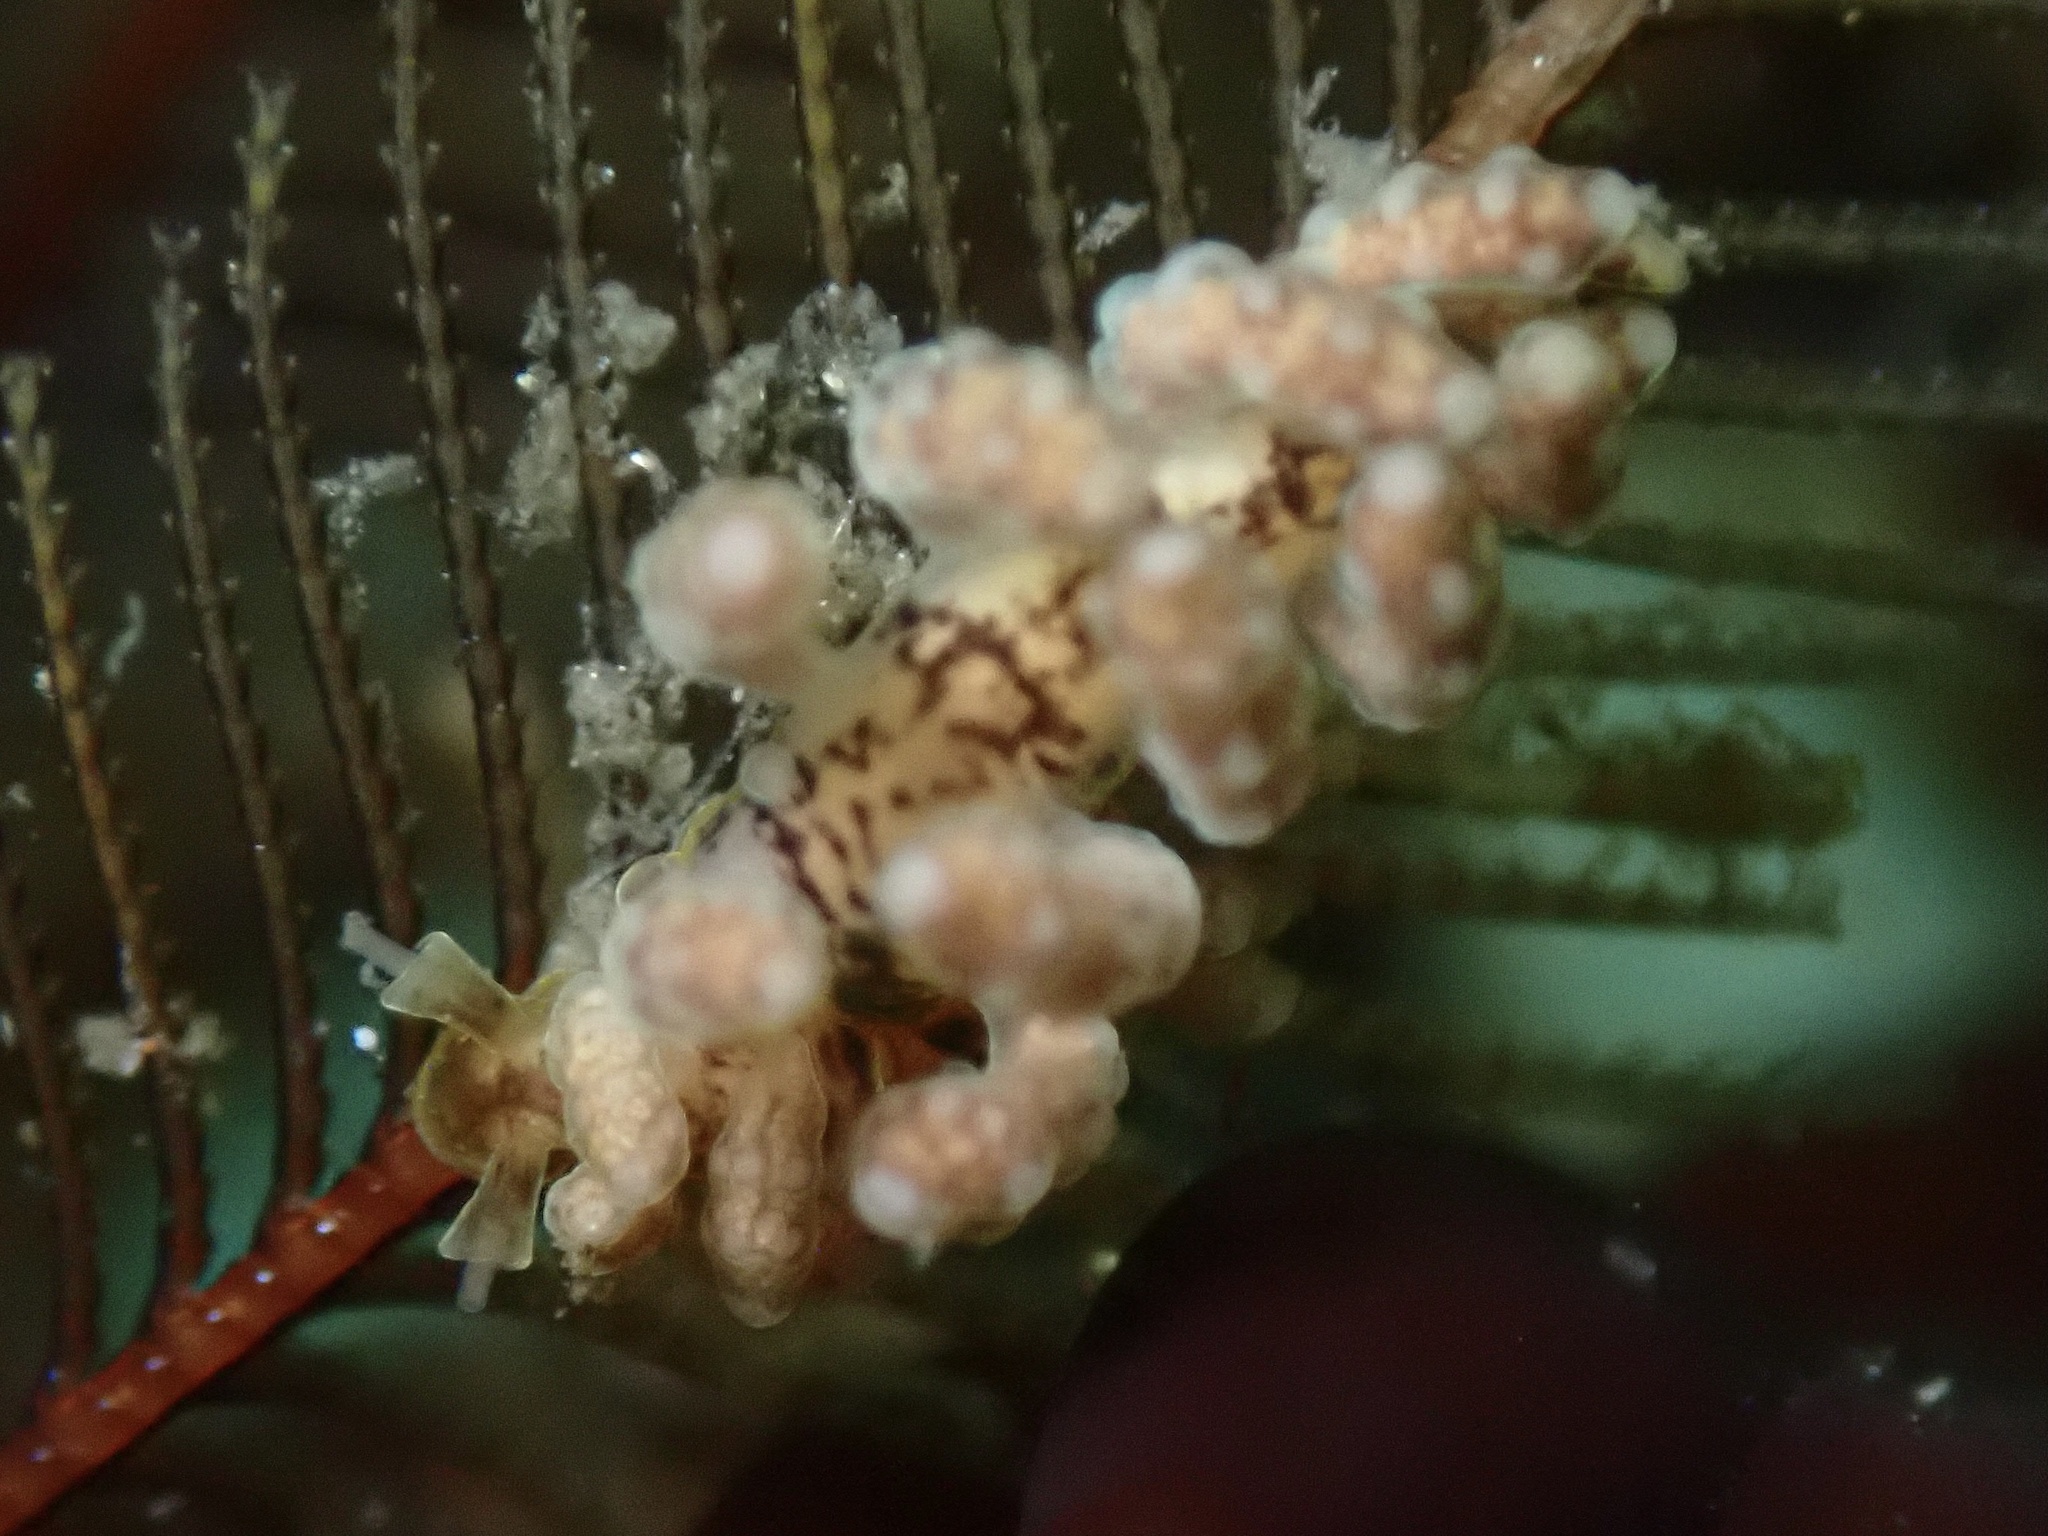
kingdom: Animalia
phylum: Mollusca
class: Gastropoda
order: Nudibranchia
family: Dotidae
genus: Doto
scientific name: Doto columbiana
